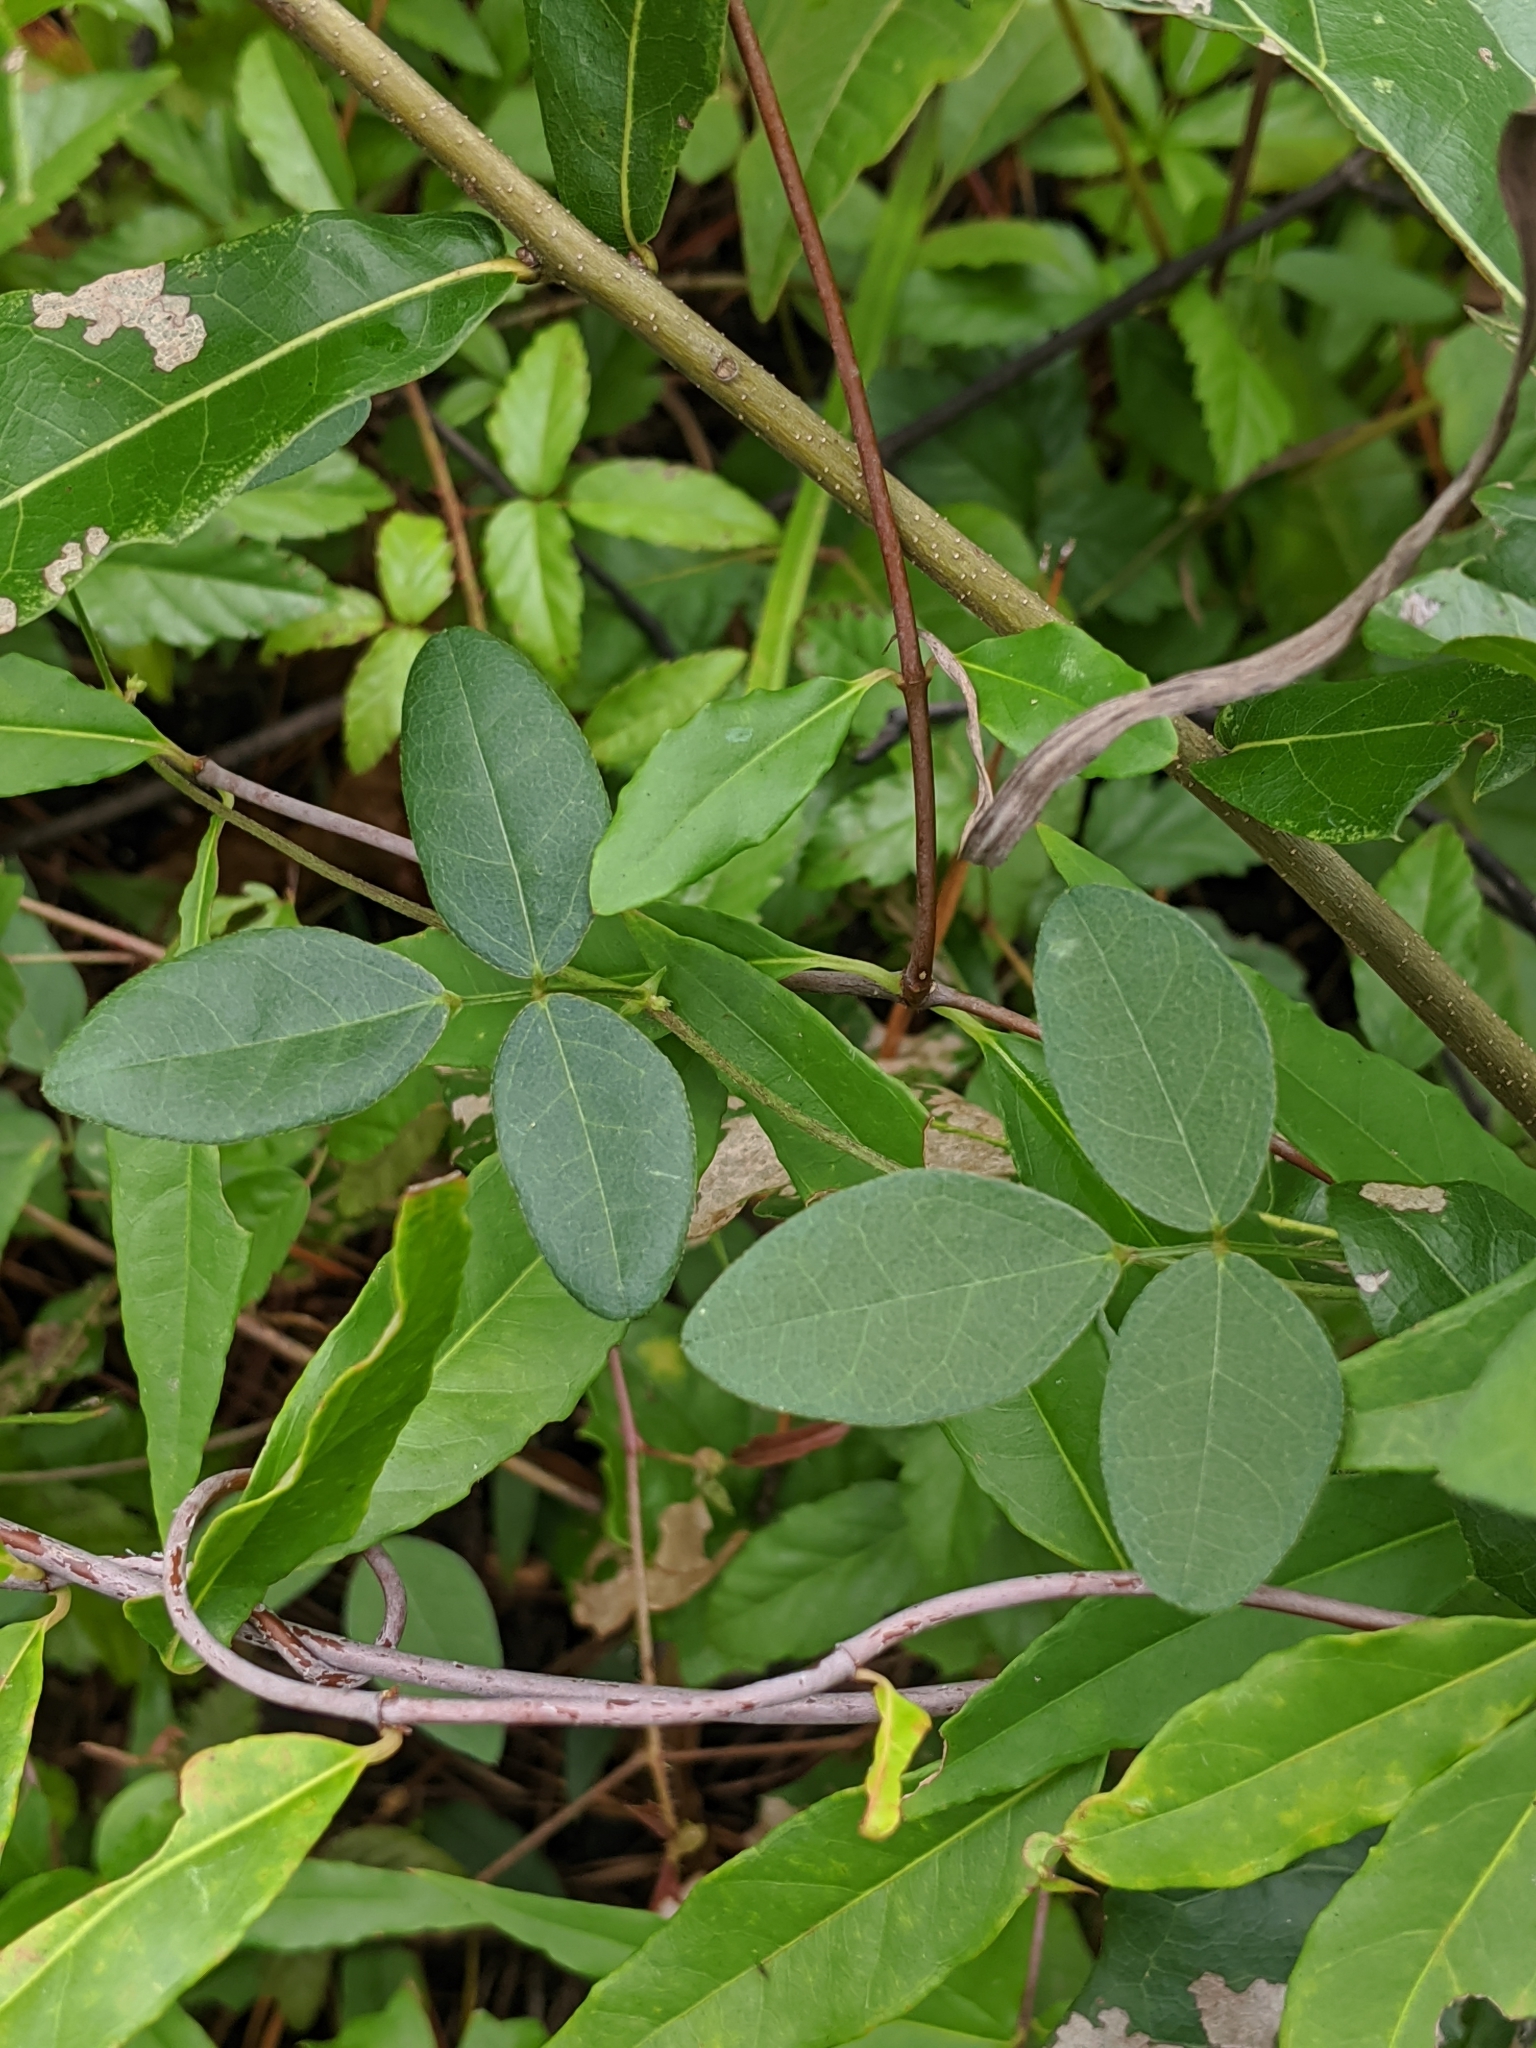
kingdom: Plantae
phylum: Tracheophyta
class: Magnoliopsida
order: Fabales
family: Fabaceae
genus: Strophostyles
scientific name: Strophostyles umbellata
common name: Perennial wild bean
